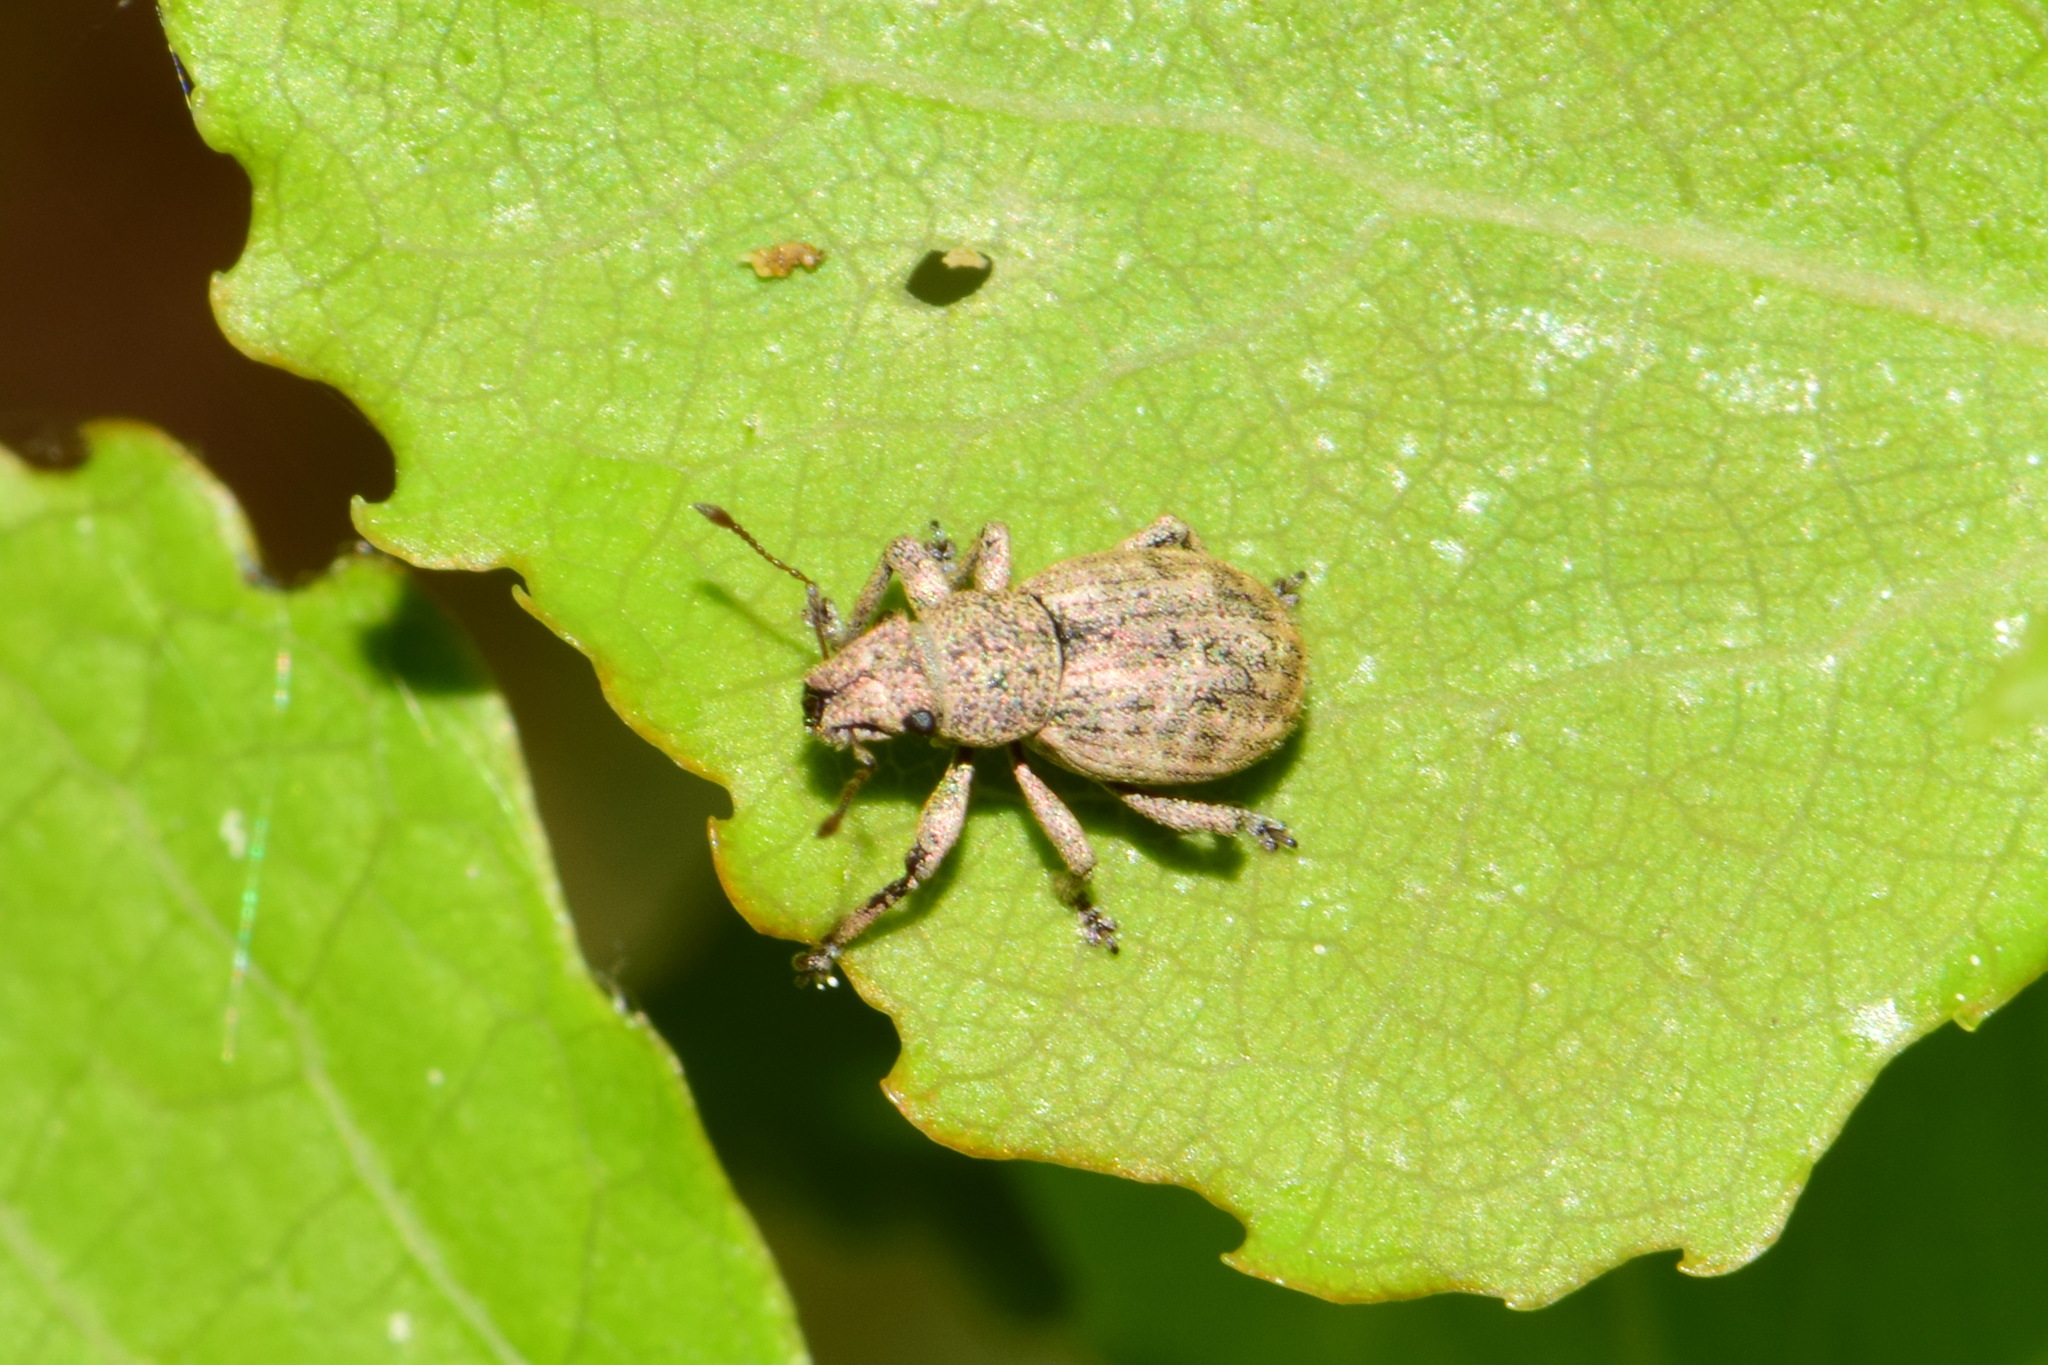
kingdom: Animalia
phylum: Arthropoda
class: Insecta
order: Coleoptera
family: Curculionidae
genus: Strophosoma
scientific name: Strophosoma capitatum
